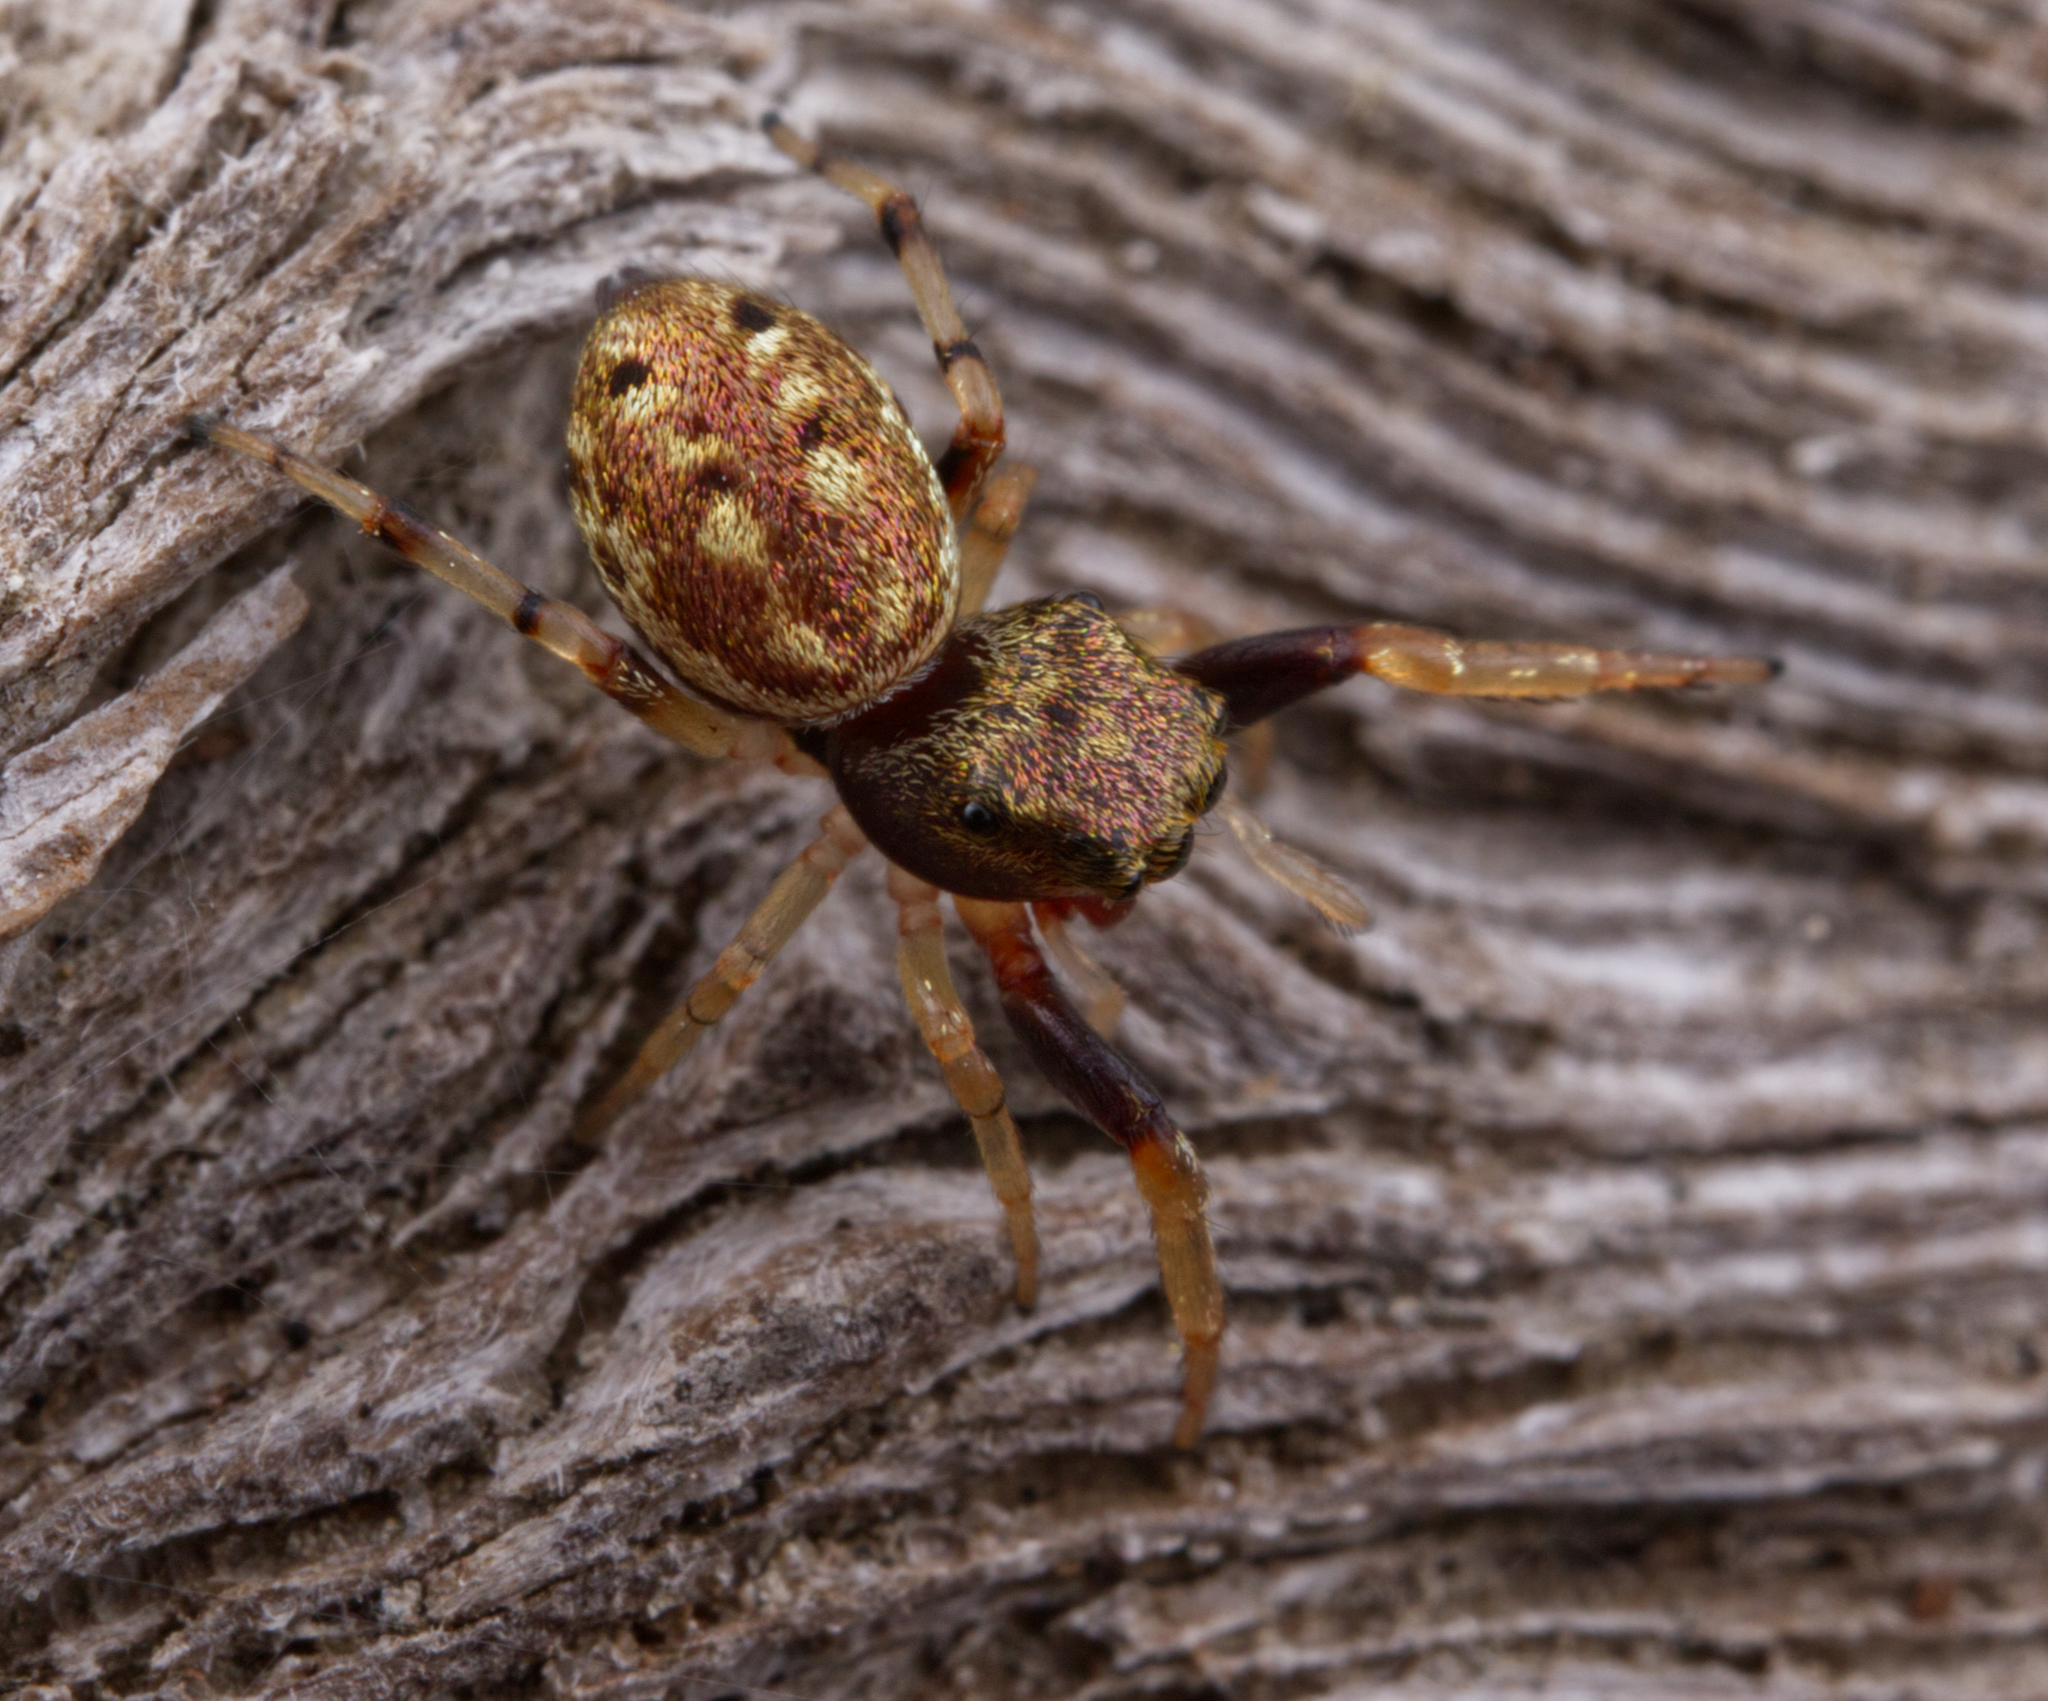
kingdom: Animalia
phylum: Arthropoda
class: Arachnida
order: Araneae
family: Salticidae
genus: Zygoballus
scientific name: Zygoballus rufipes
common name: Jumping spiders
